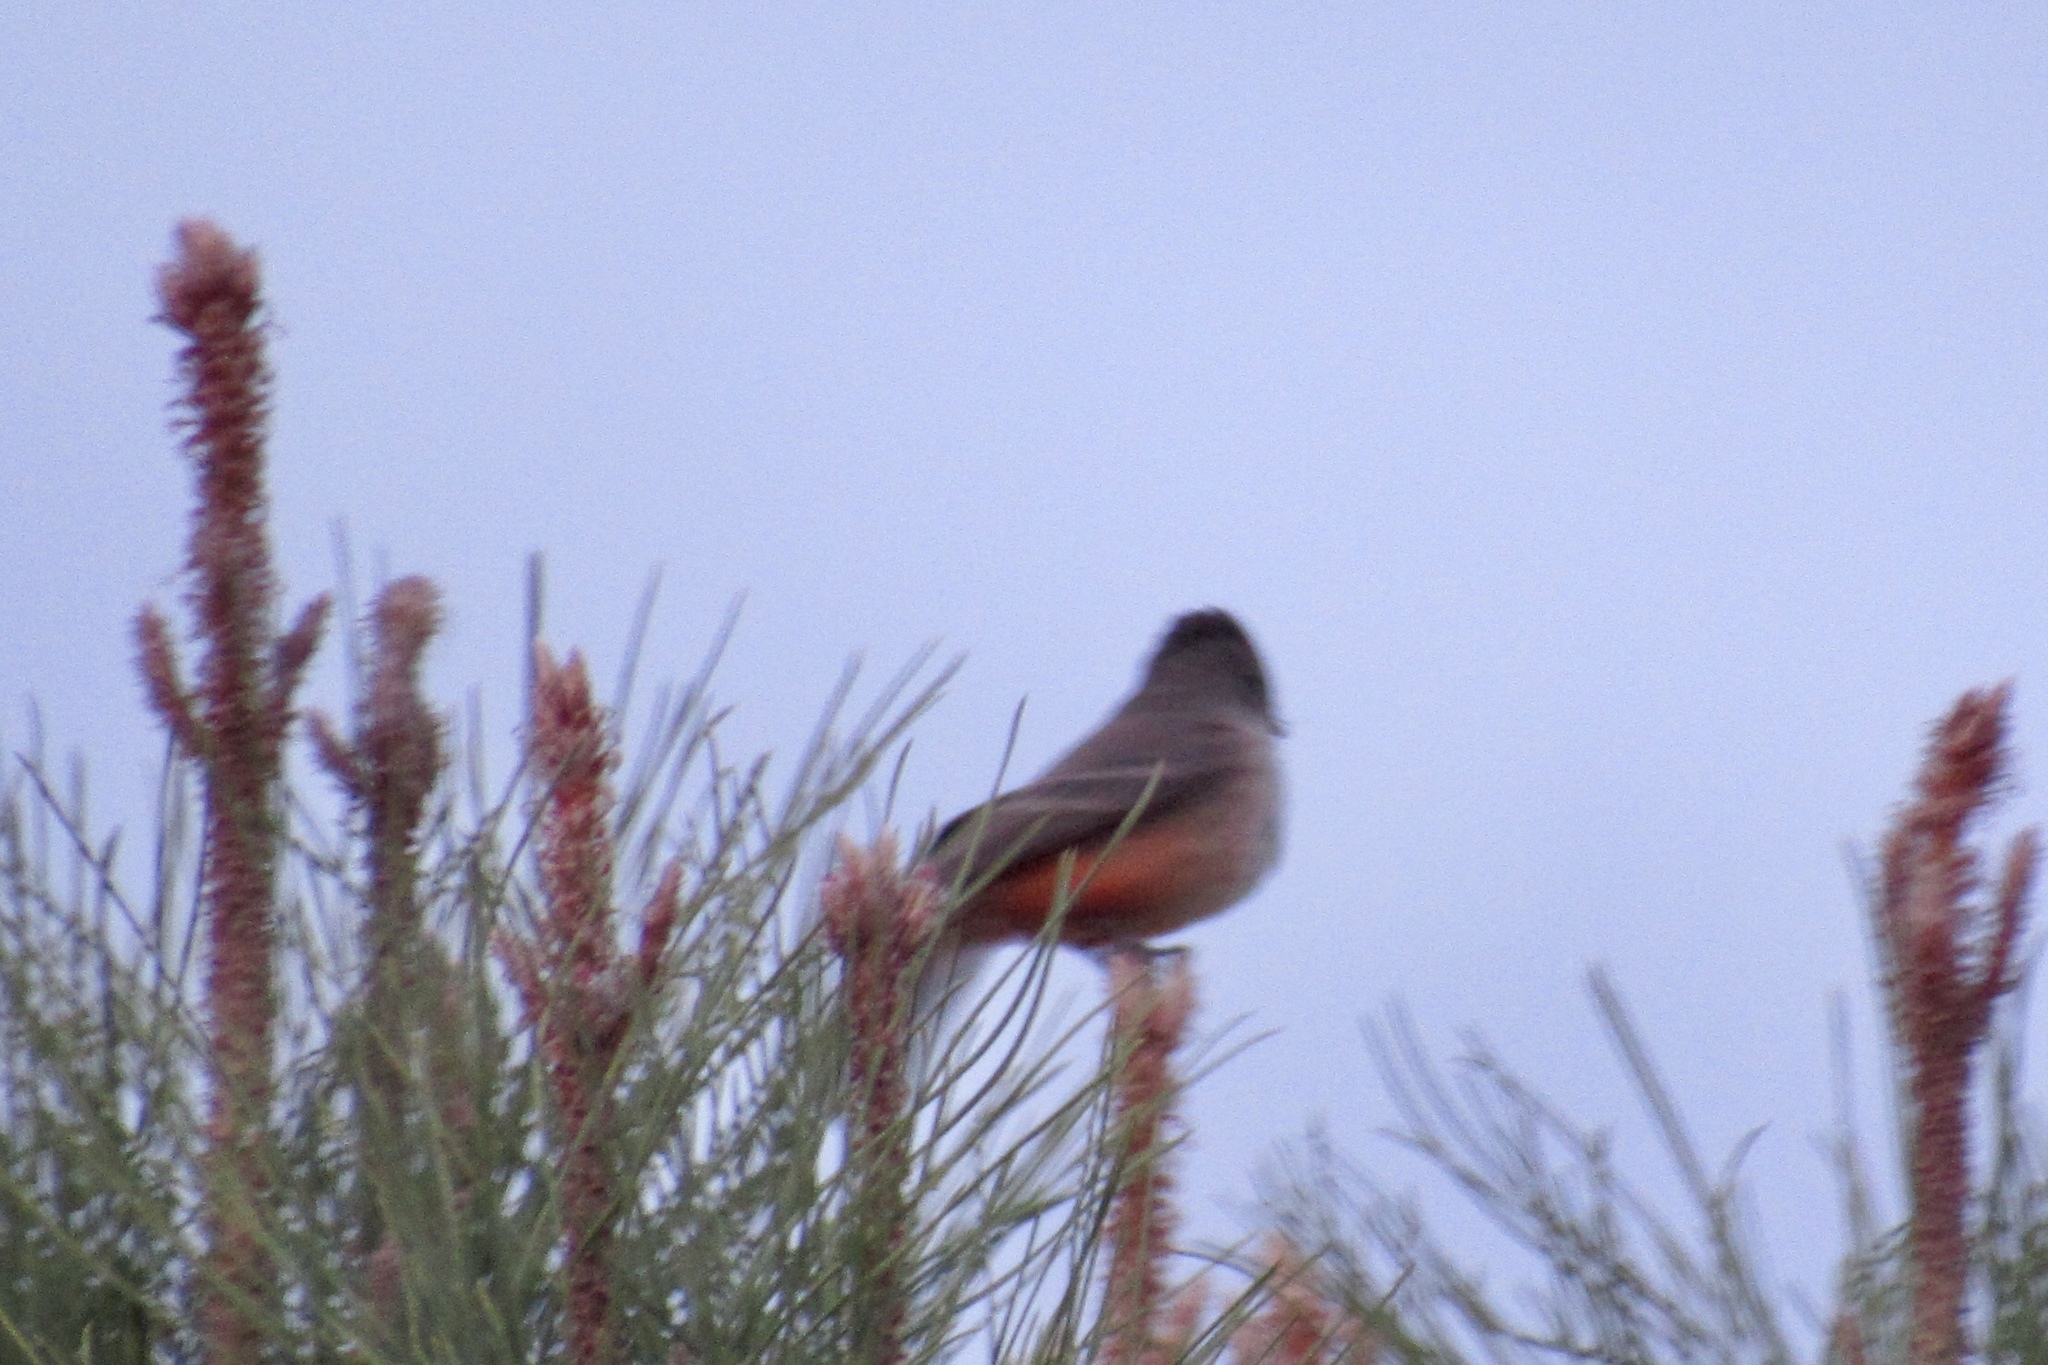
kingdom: Animalia
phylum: Chordata
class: Aves
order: Passeriformes
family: Tyrannidae
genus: Pyrocephalus
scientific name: Pyrocephalus rubinus
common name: Vermilion flycatcher
